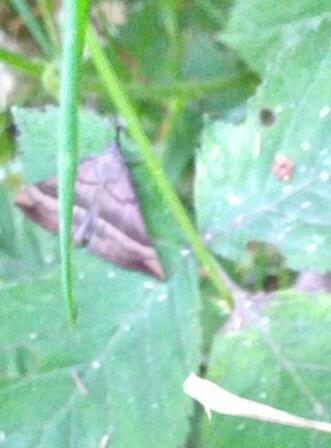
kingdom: Animalia
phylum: Arthropoda
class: Insecta
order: Lepidoptera
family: Erebidae
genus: Hypena
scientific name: Hypena proboscidalis
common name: Snout
